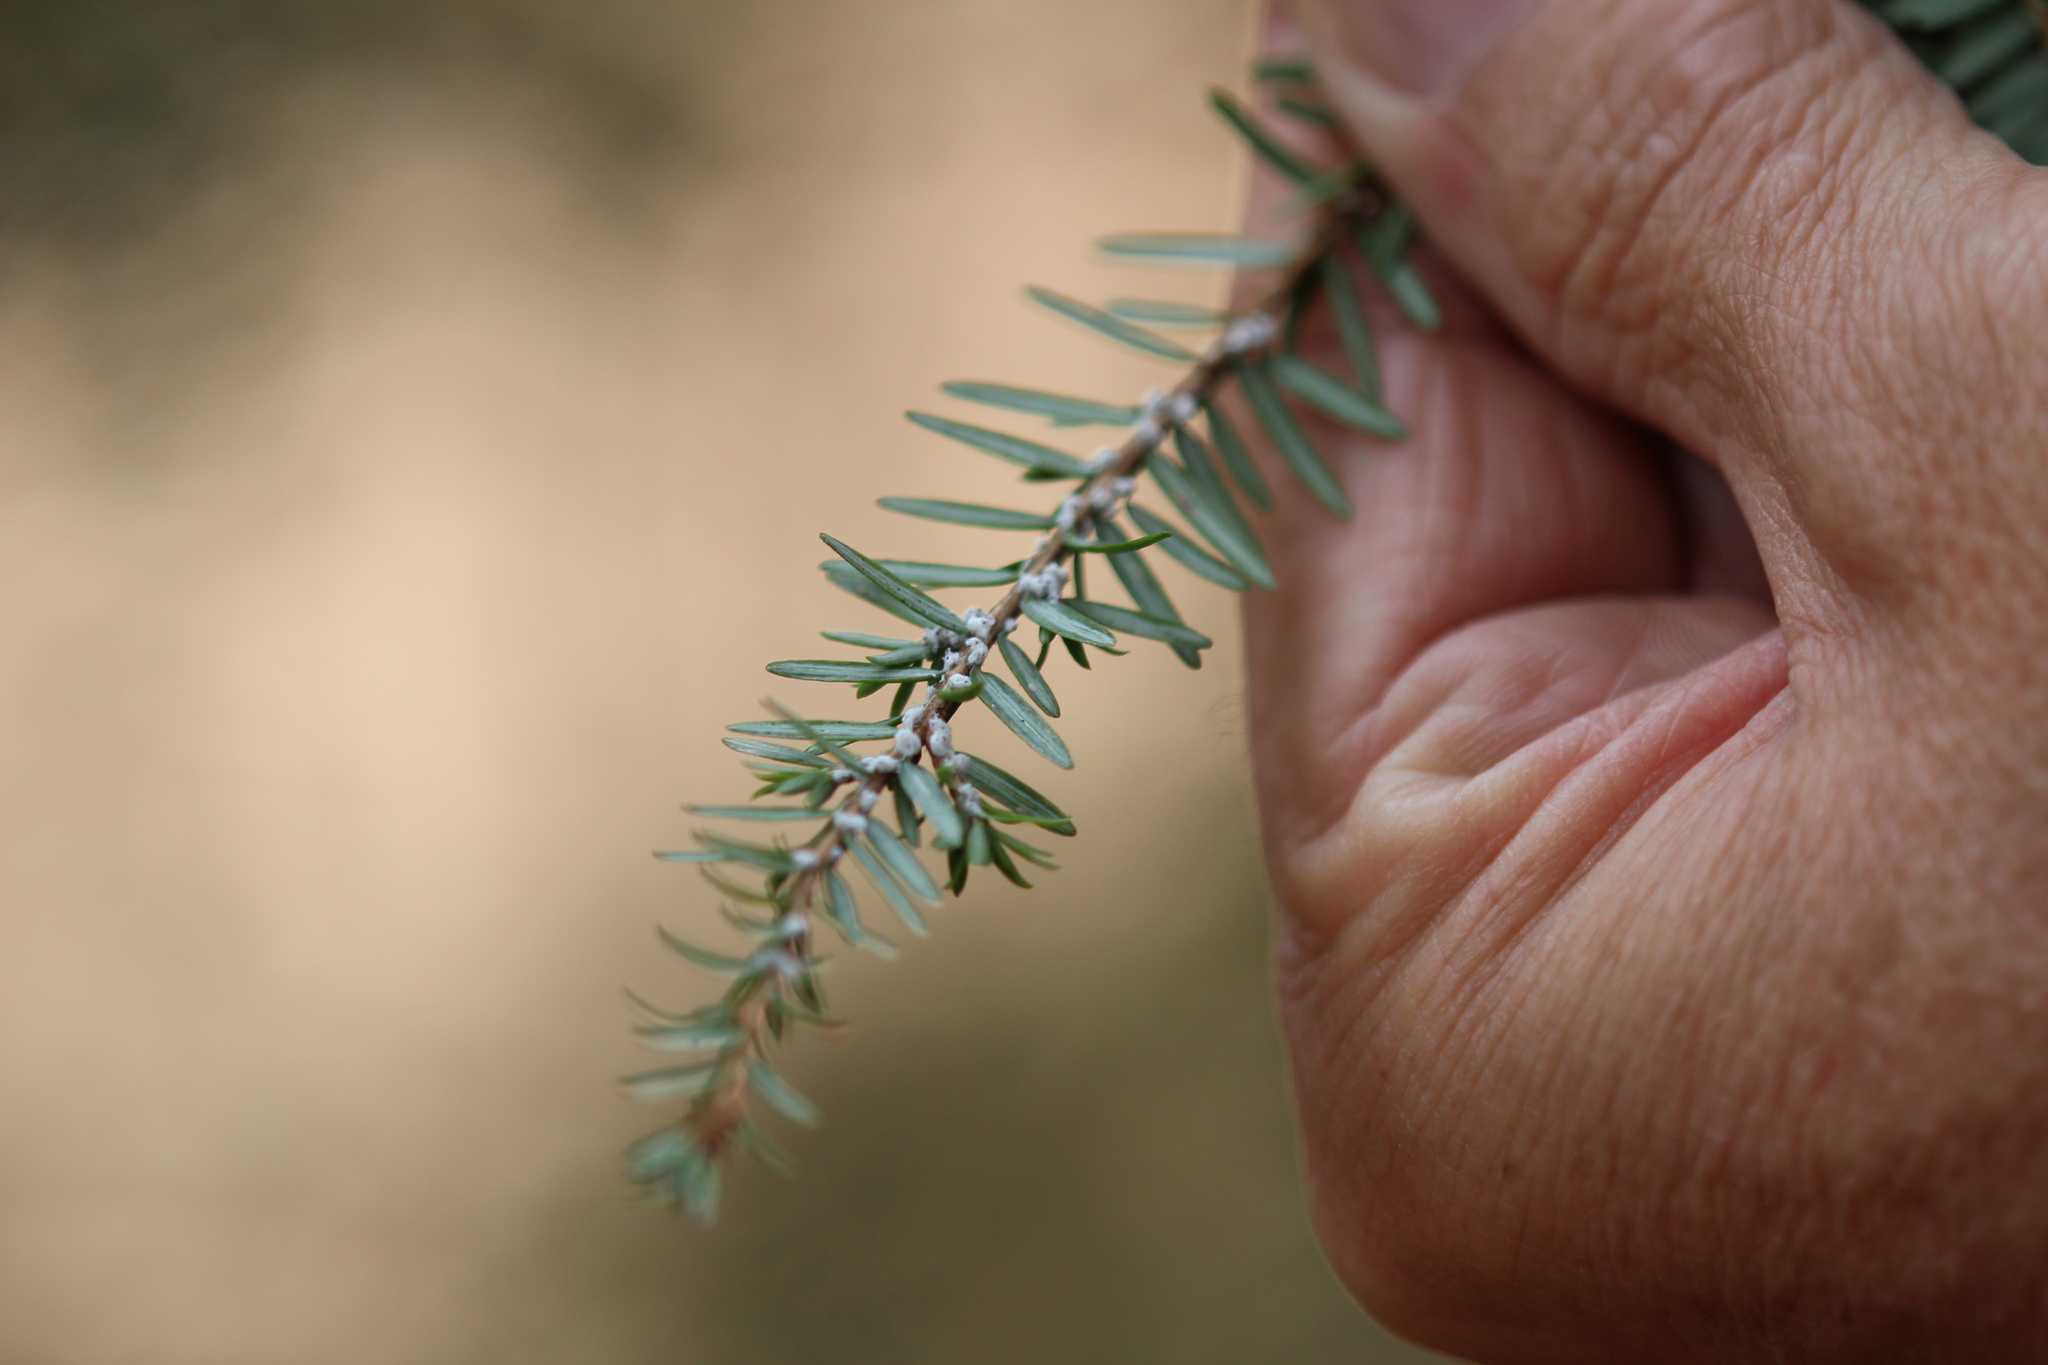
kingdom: Plantae
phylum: Tracheophyta
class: Pinopsida
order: Pinales
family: Pinaceae
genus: Tsuga
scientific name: Tsuga canadensis
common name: Eastern hemlock
